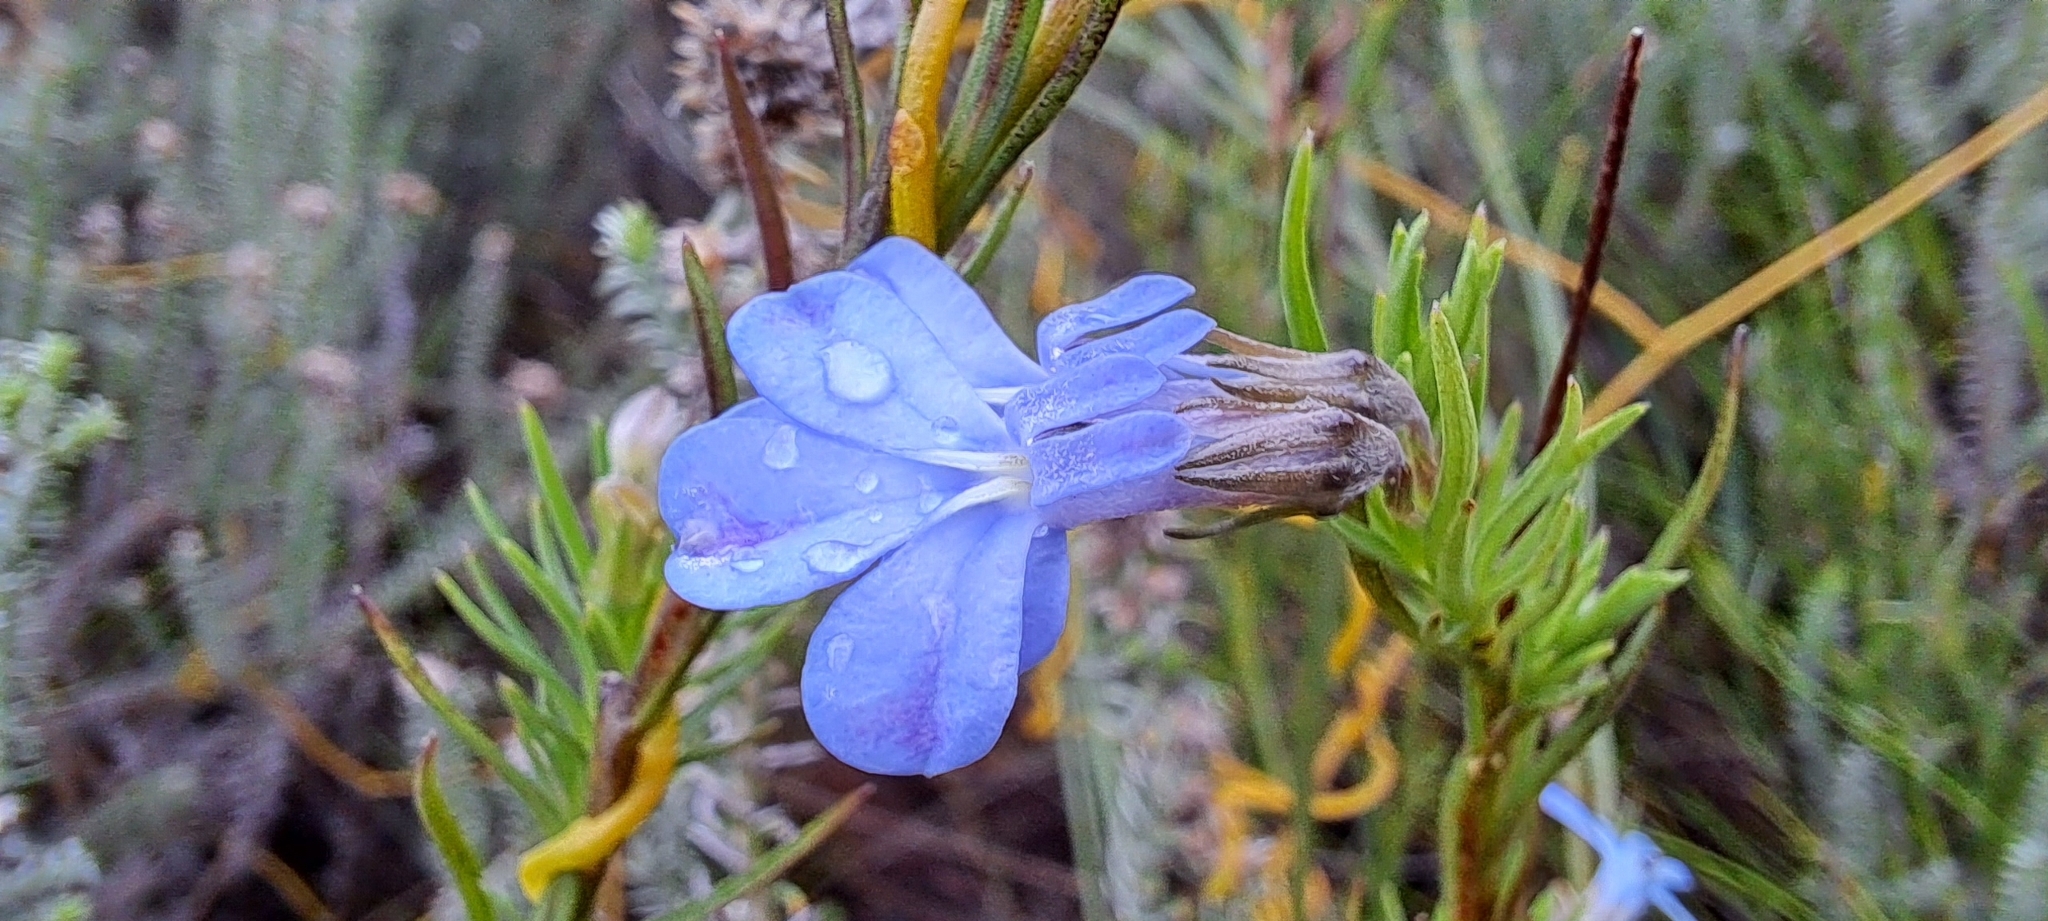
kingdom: Plantae
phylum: Tracheophyta
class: Magnoliopsida
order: Asterales
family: Campanulaceae
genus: Lobelia
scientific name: Lobelia pinifolia
